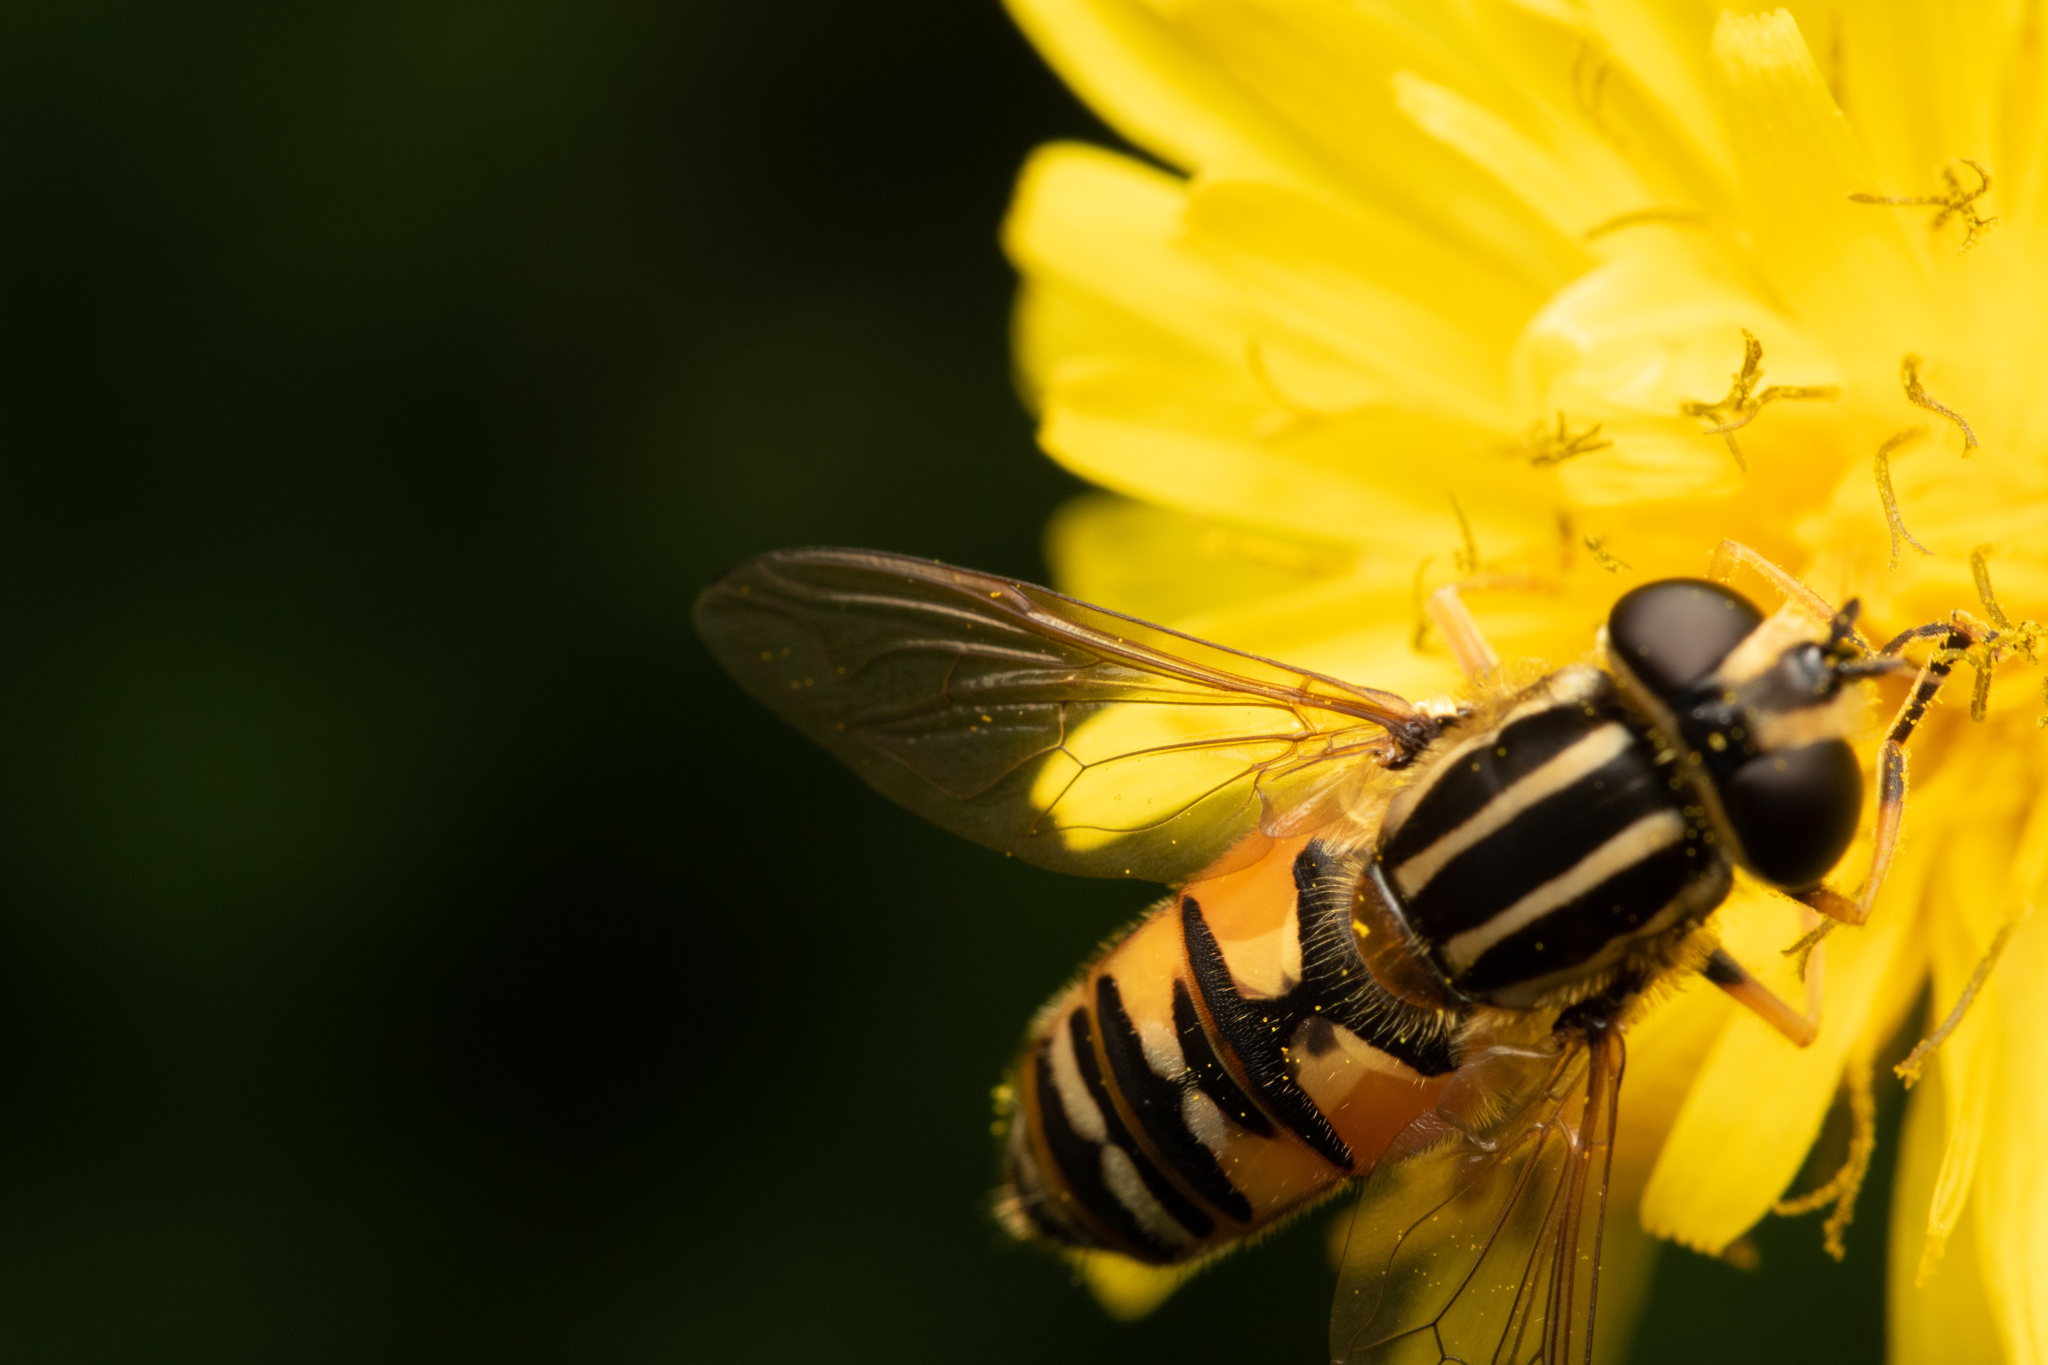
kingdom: Animalia
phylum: Arthropoda
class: Insecta
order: Diptera
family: Syrphidae
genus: Helophilus
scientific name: Helophilus pendulus
